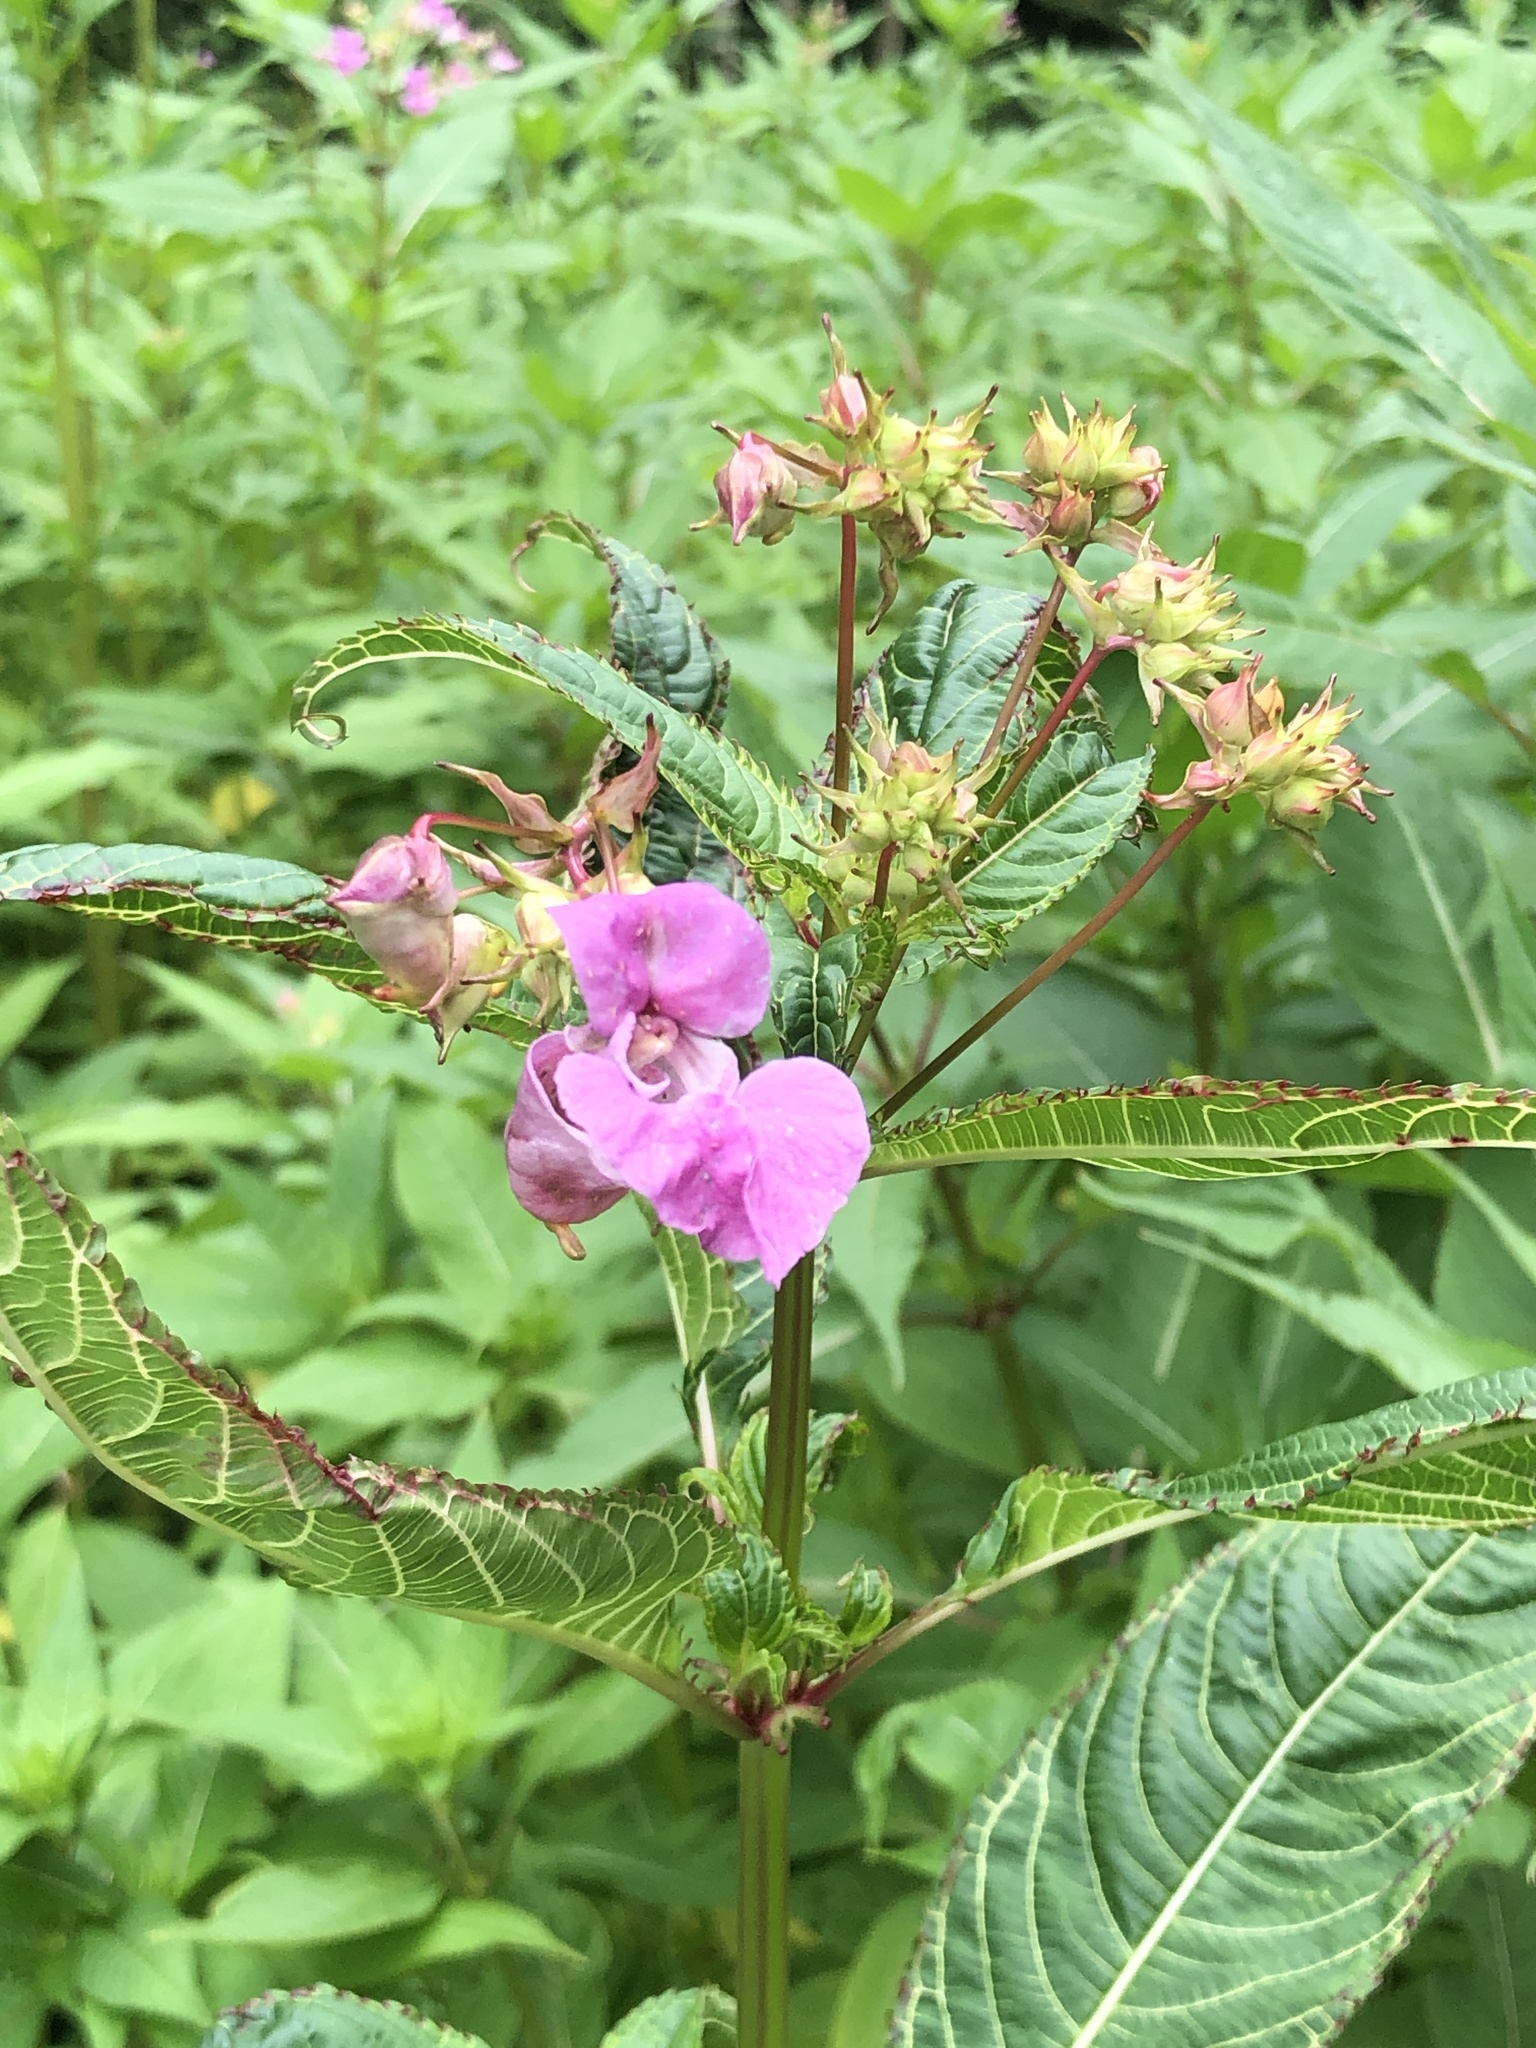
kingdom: Plantae
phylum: Tracheophyta
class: Magnoliopsida
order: Ericales
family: Balsaminaceae
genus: Impatiens
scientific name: Impatiens glandulifera
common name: Himalayan balsam
